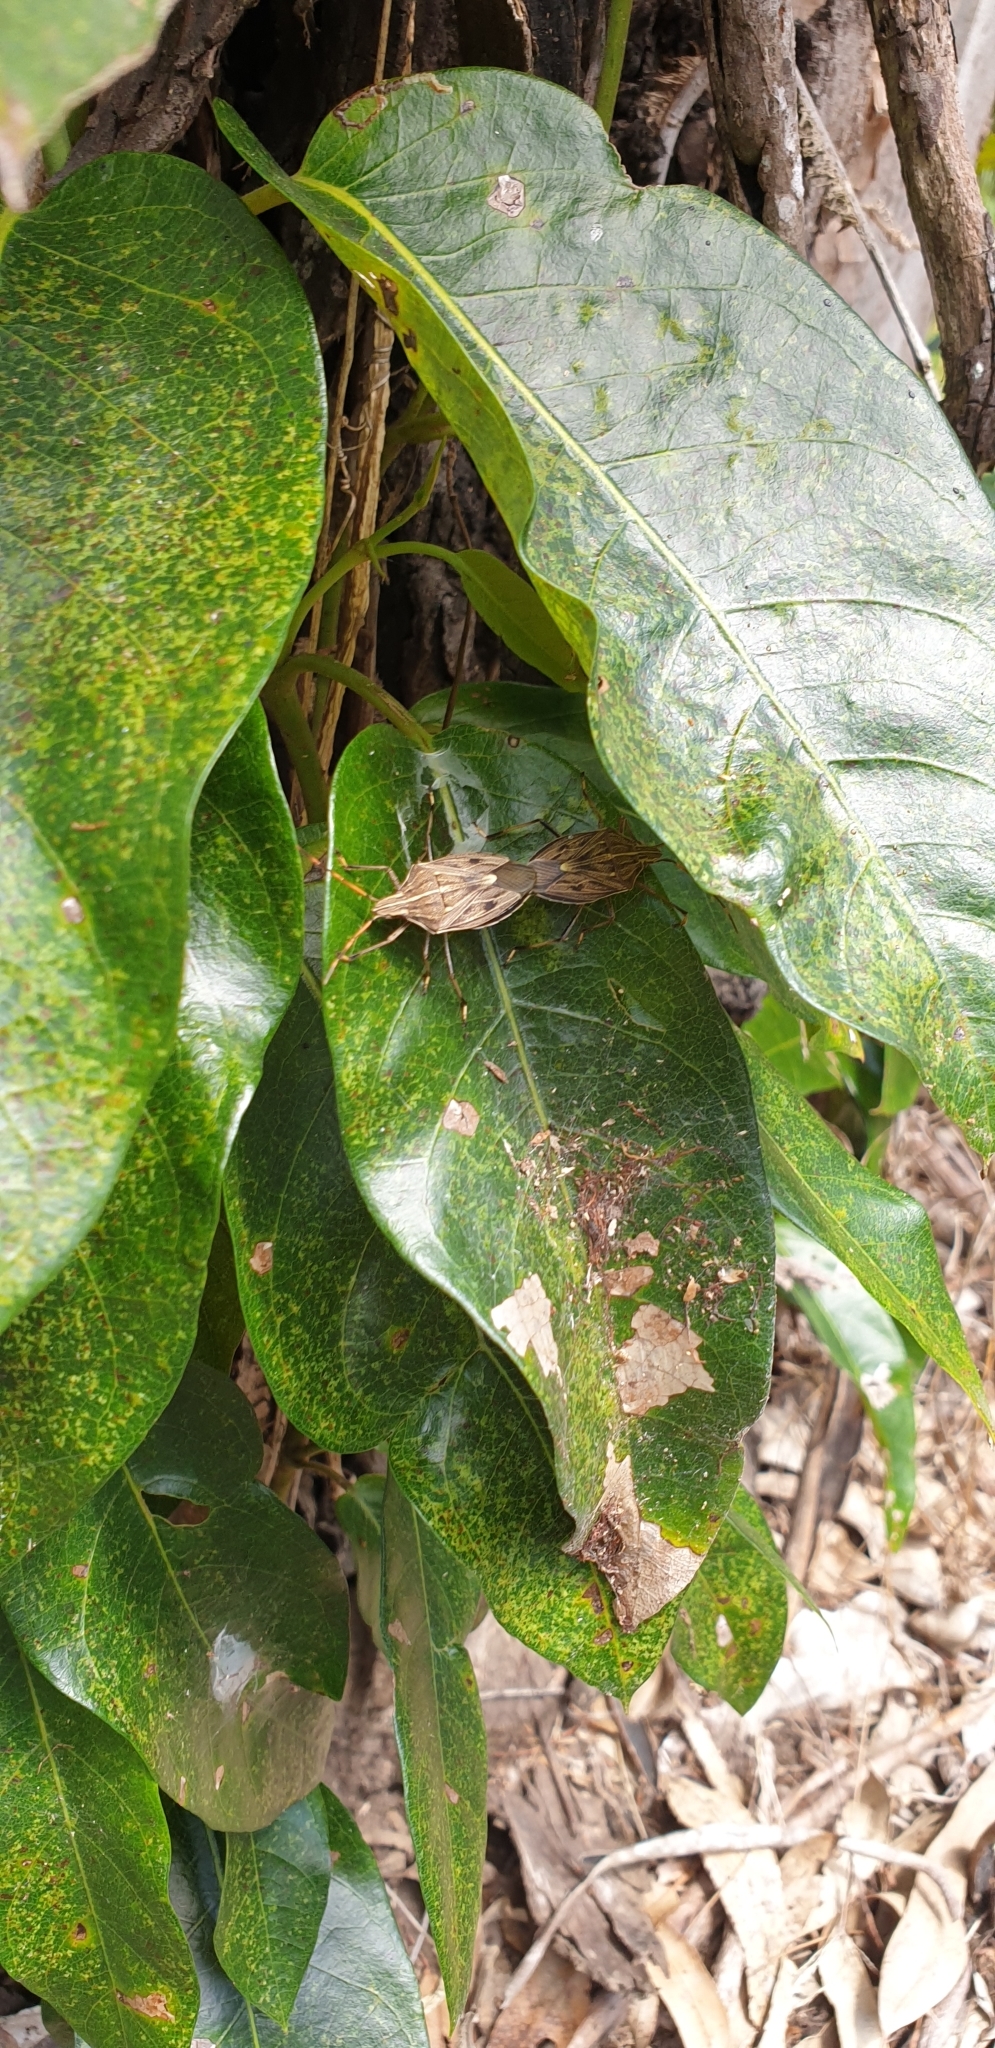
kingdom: Animalia
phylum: Arthropoda
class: Insecta
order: Hemiptera
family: Pentatomidae
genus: Poecilometis
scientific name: Poecilometis
